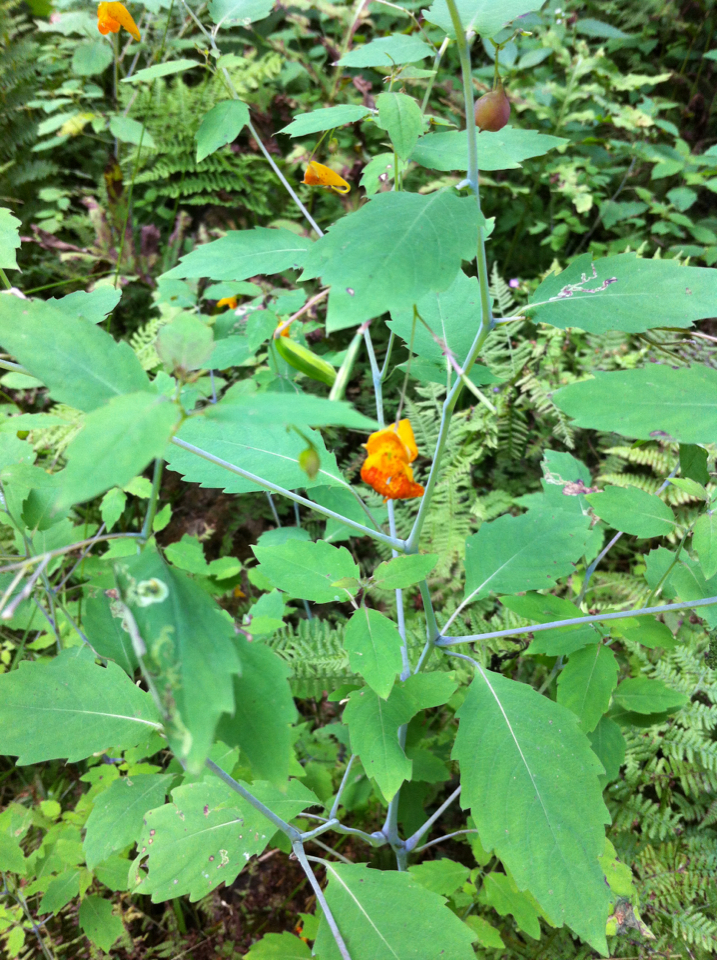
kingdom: Plantae
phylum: Tracheophyta
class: Magnoliopsida
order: Ericales
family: Balsaminaceae
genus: Impatiens
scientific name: Impatiens capensis
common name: Orange balsam
